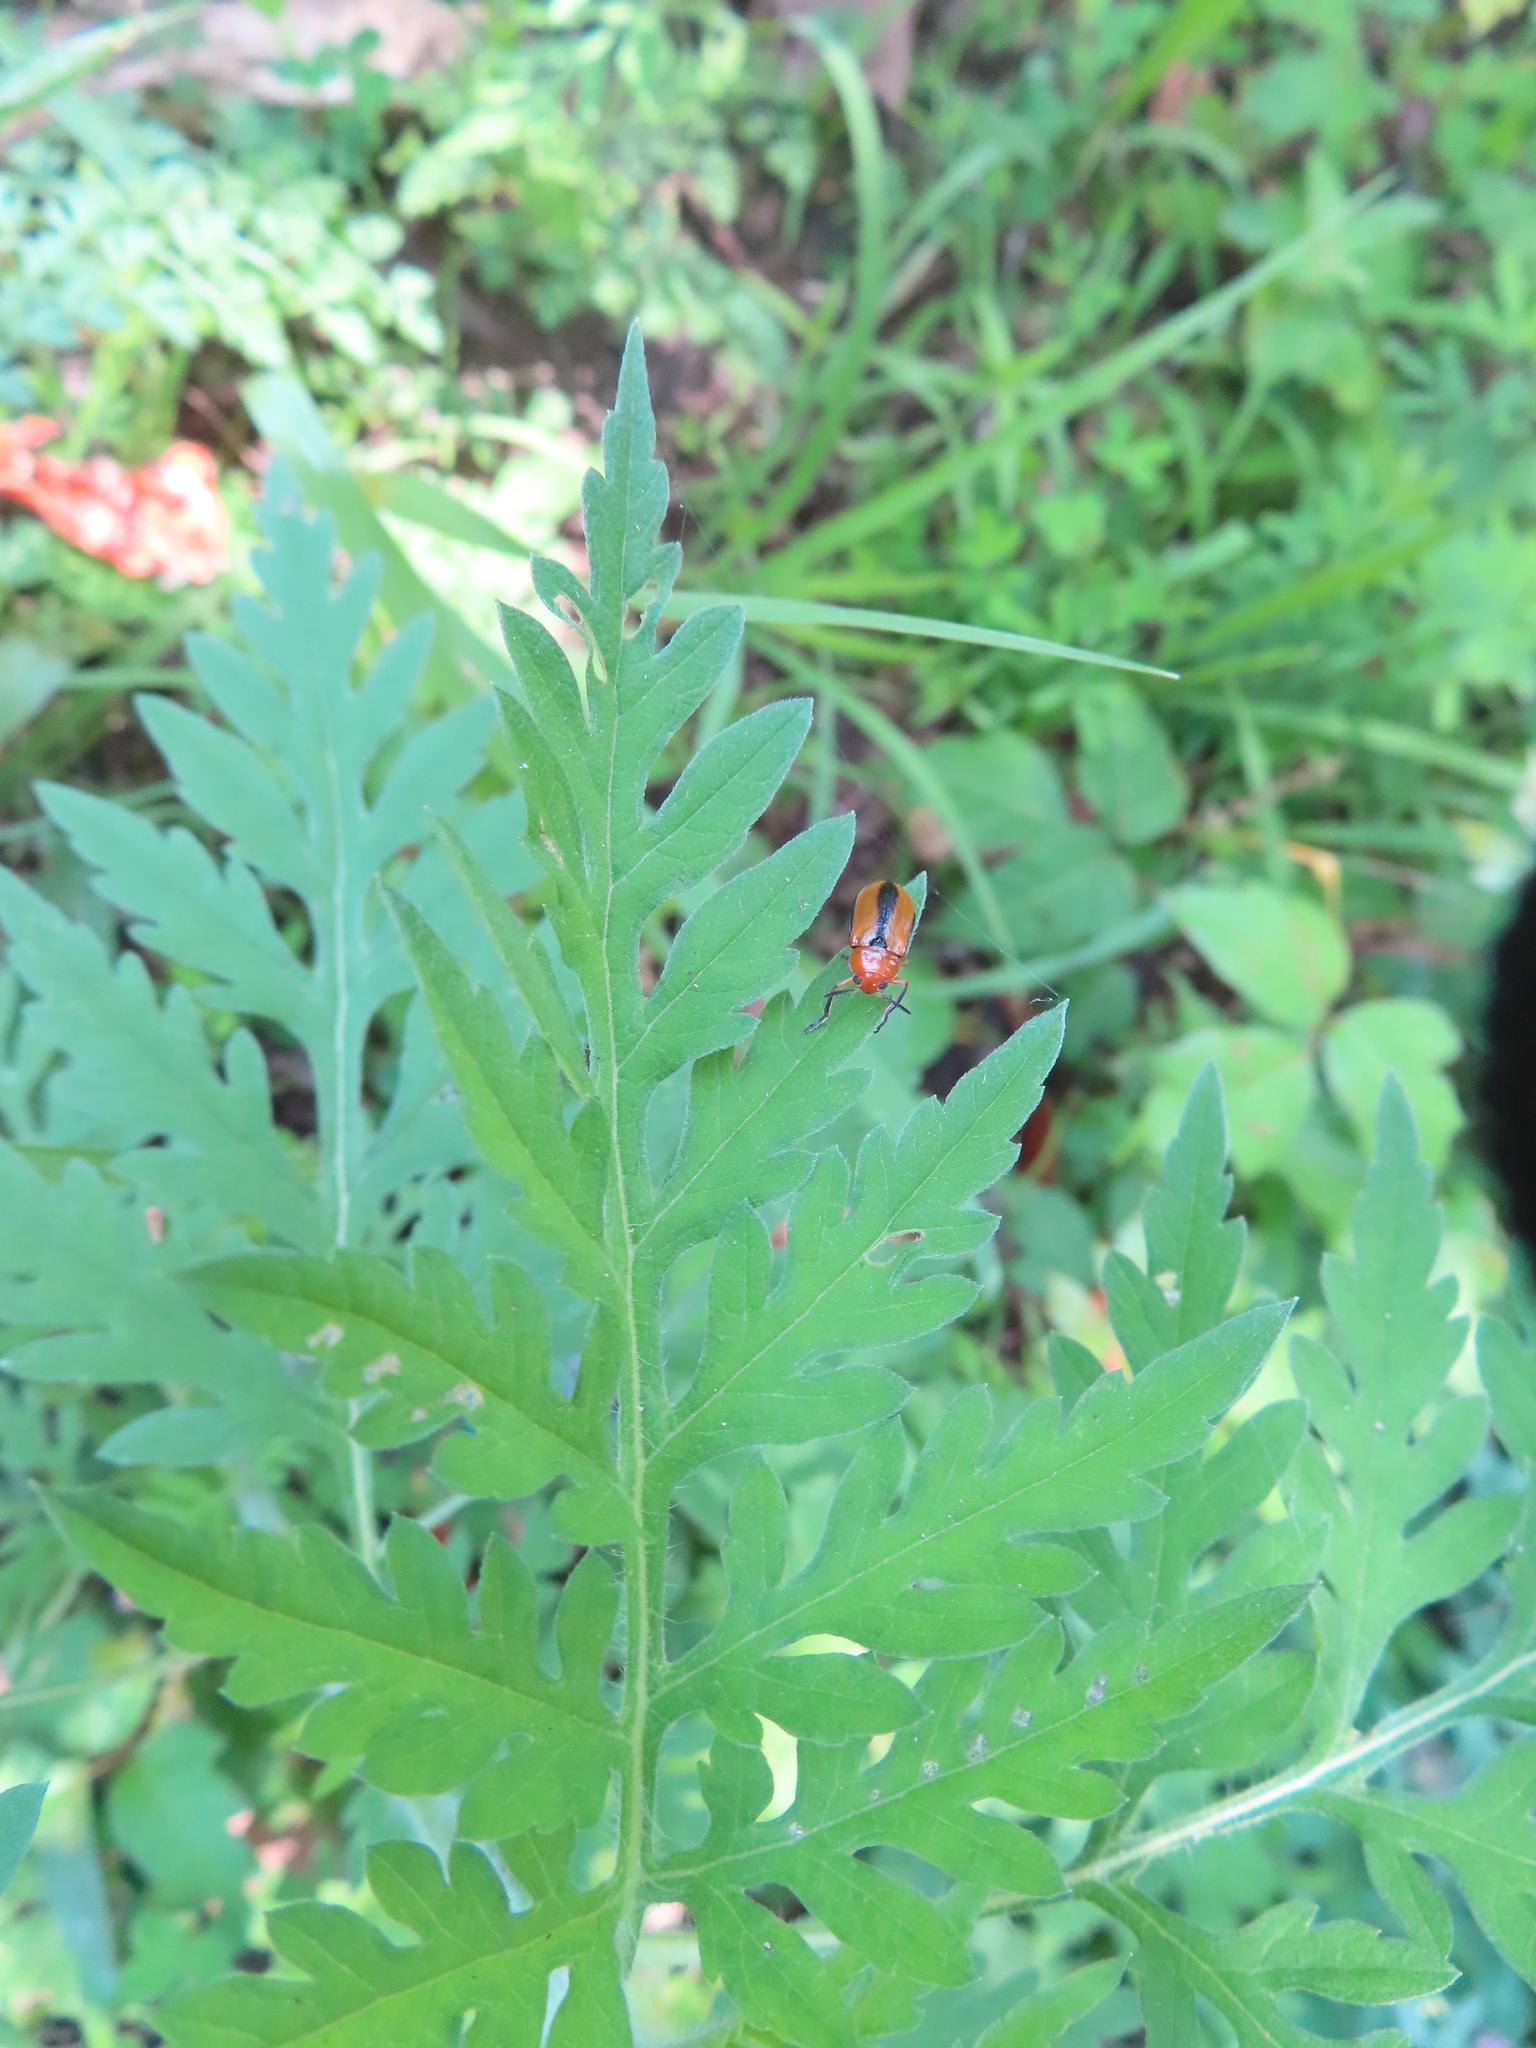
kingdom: Plantae
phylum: Tracheophyta
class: Magnoliopsida
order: Asterales
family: Asteraceae
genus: Ambrosia
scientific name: Ambrosia artemisiifolia
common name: Annual ragweed
